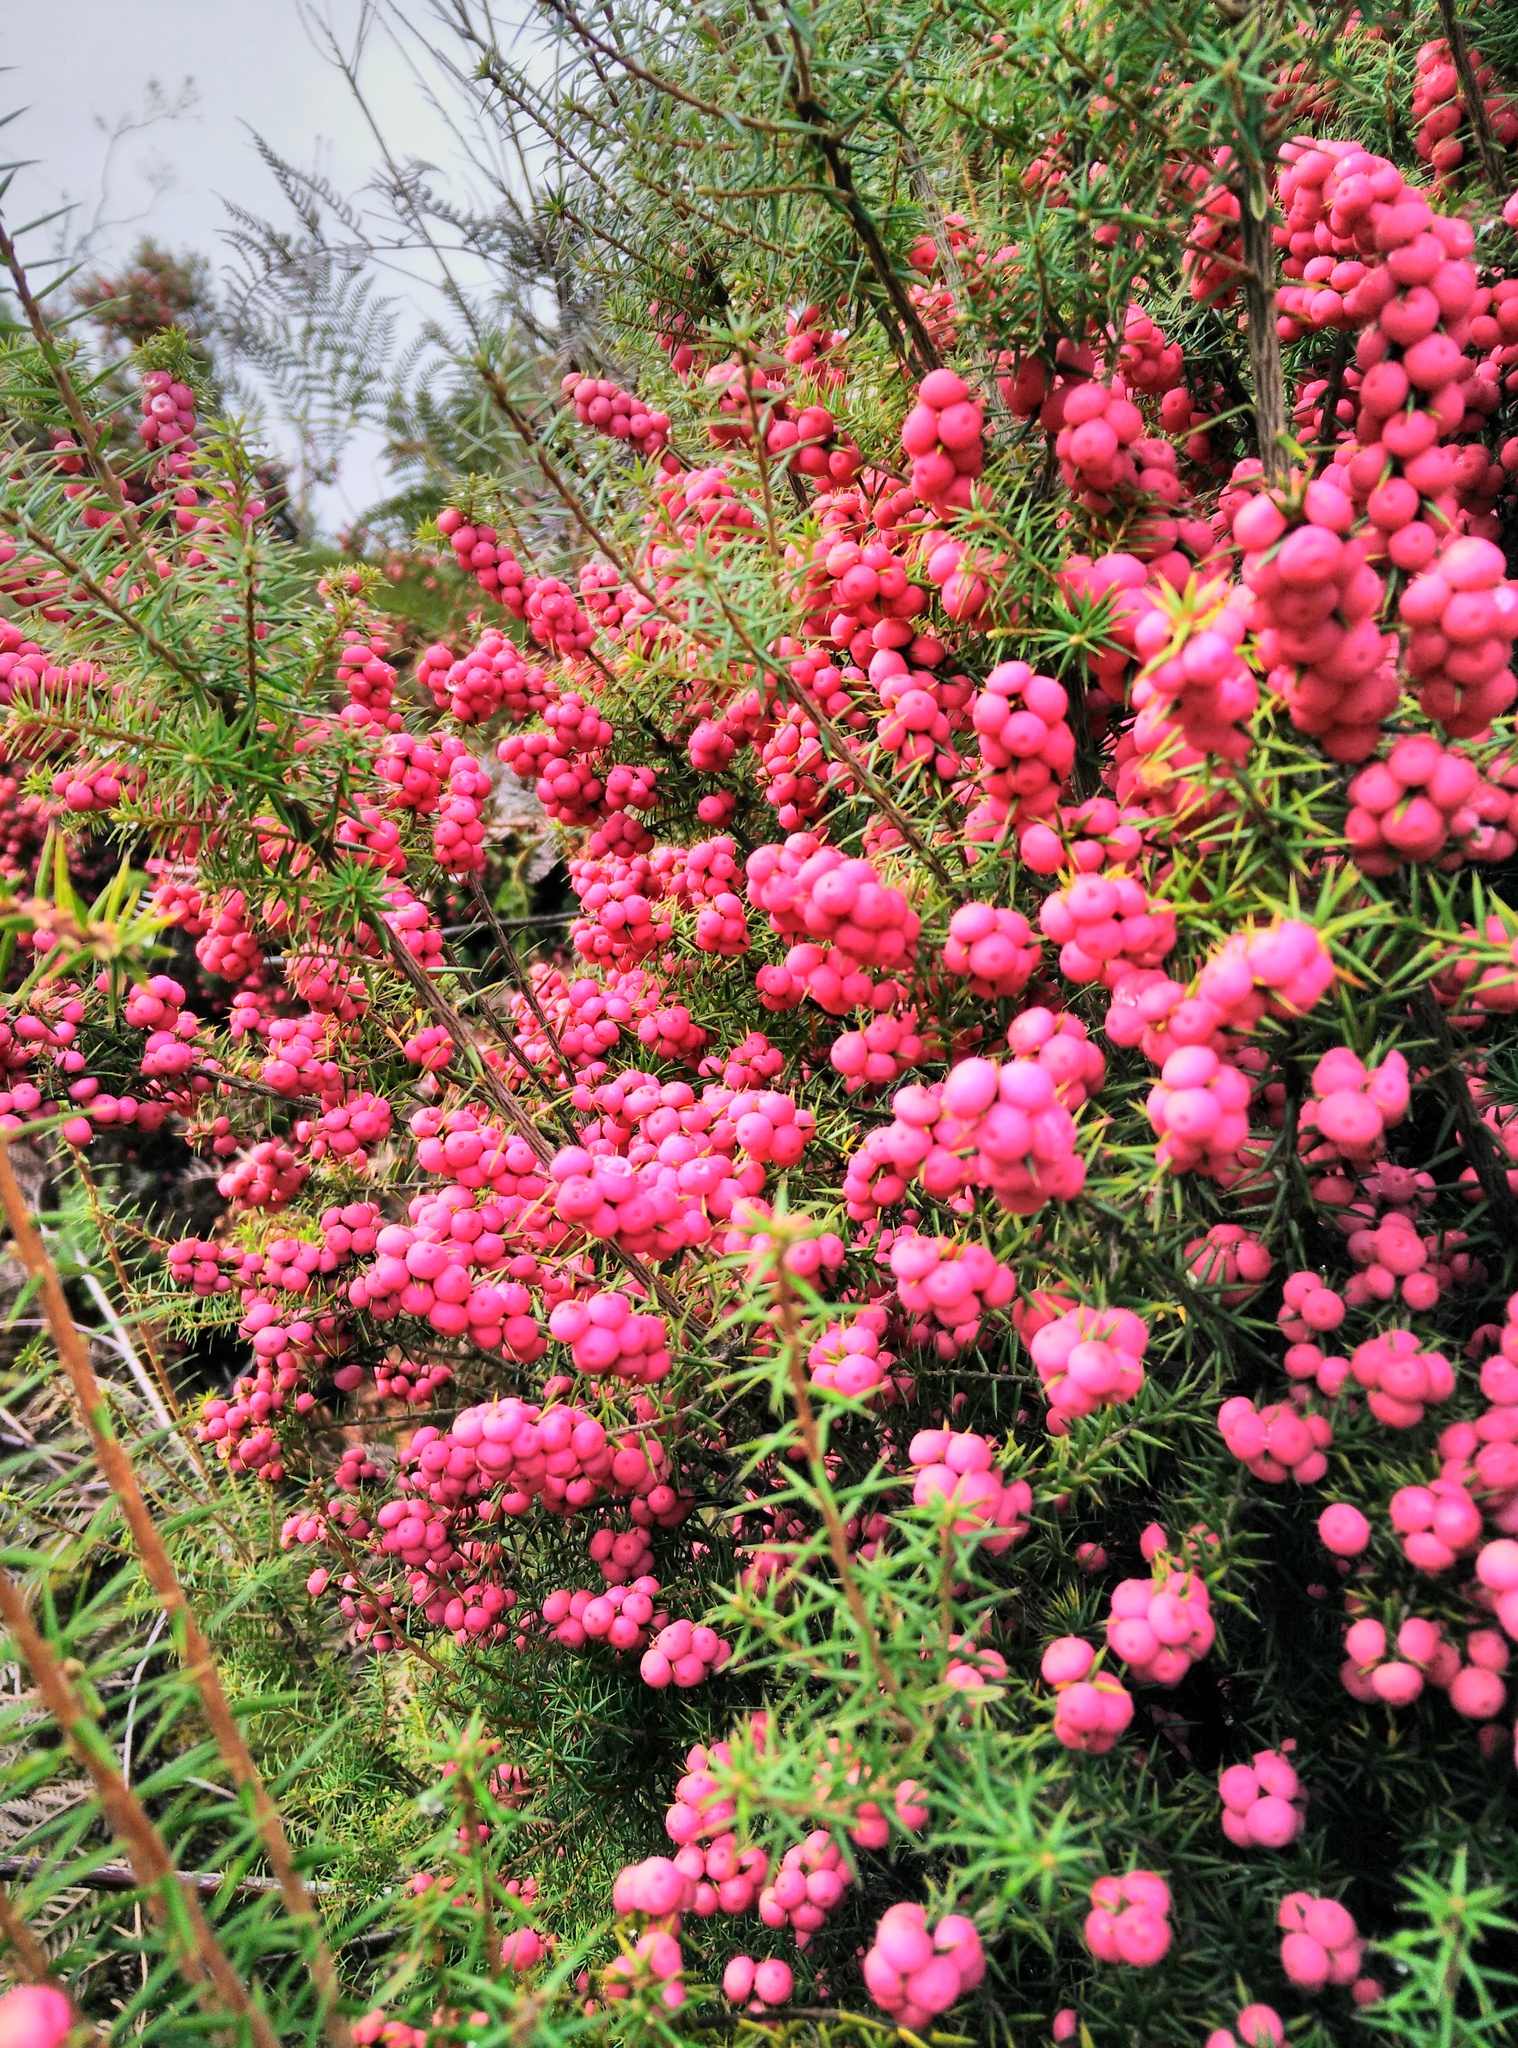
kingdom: Plantae
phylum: Tracheophyta
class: Magnoliopsida
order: Ericales
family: Ericaceae
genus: Leptecophylla
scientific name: Leptecophylla oxycedrus
